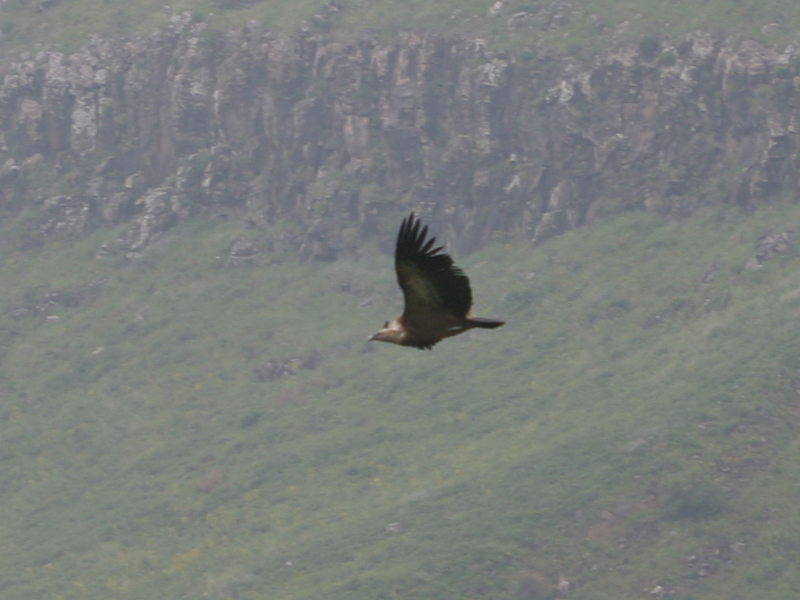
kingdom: Animalia
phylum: Chordata
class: Aves
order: Accipitriformes
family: Accipitridae
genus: Gyps
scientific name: Gyps fulvus
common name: Griffon vulture
